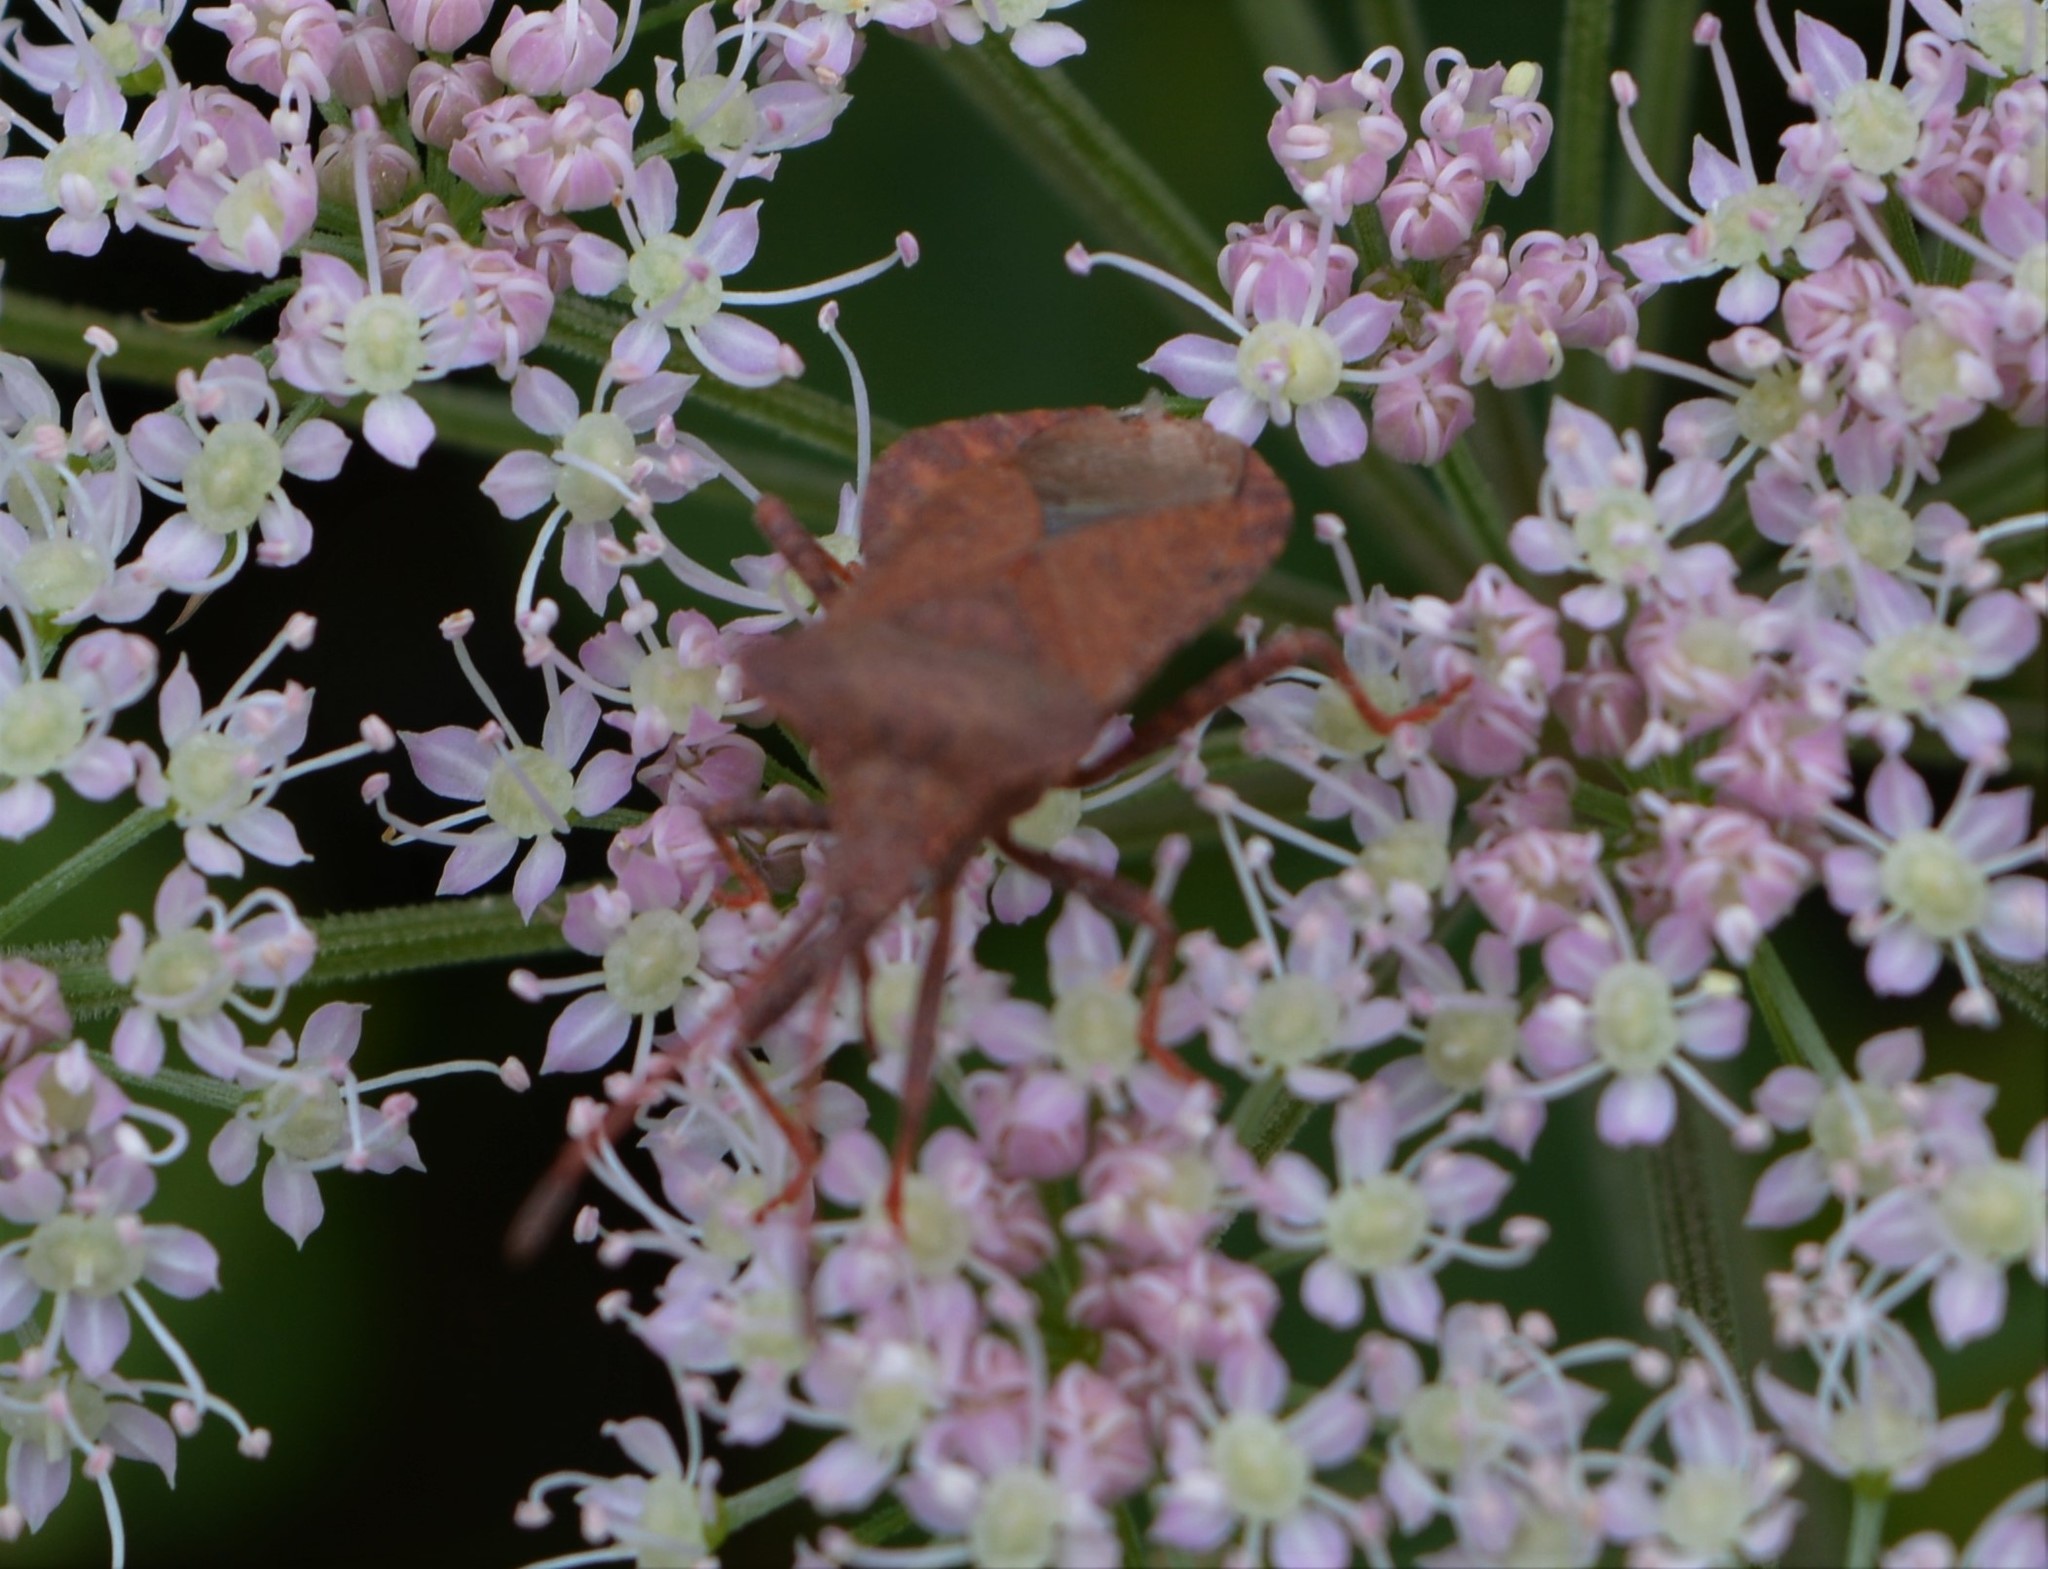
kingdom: Animalia
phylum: Arthropoda
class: Insecta
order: Hemiptera
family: Coreidae
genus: Coreus
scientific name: Coreus marginatus
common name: Dock bug
